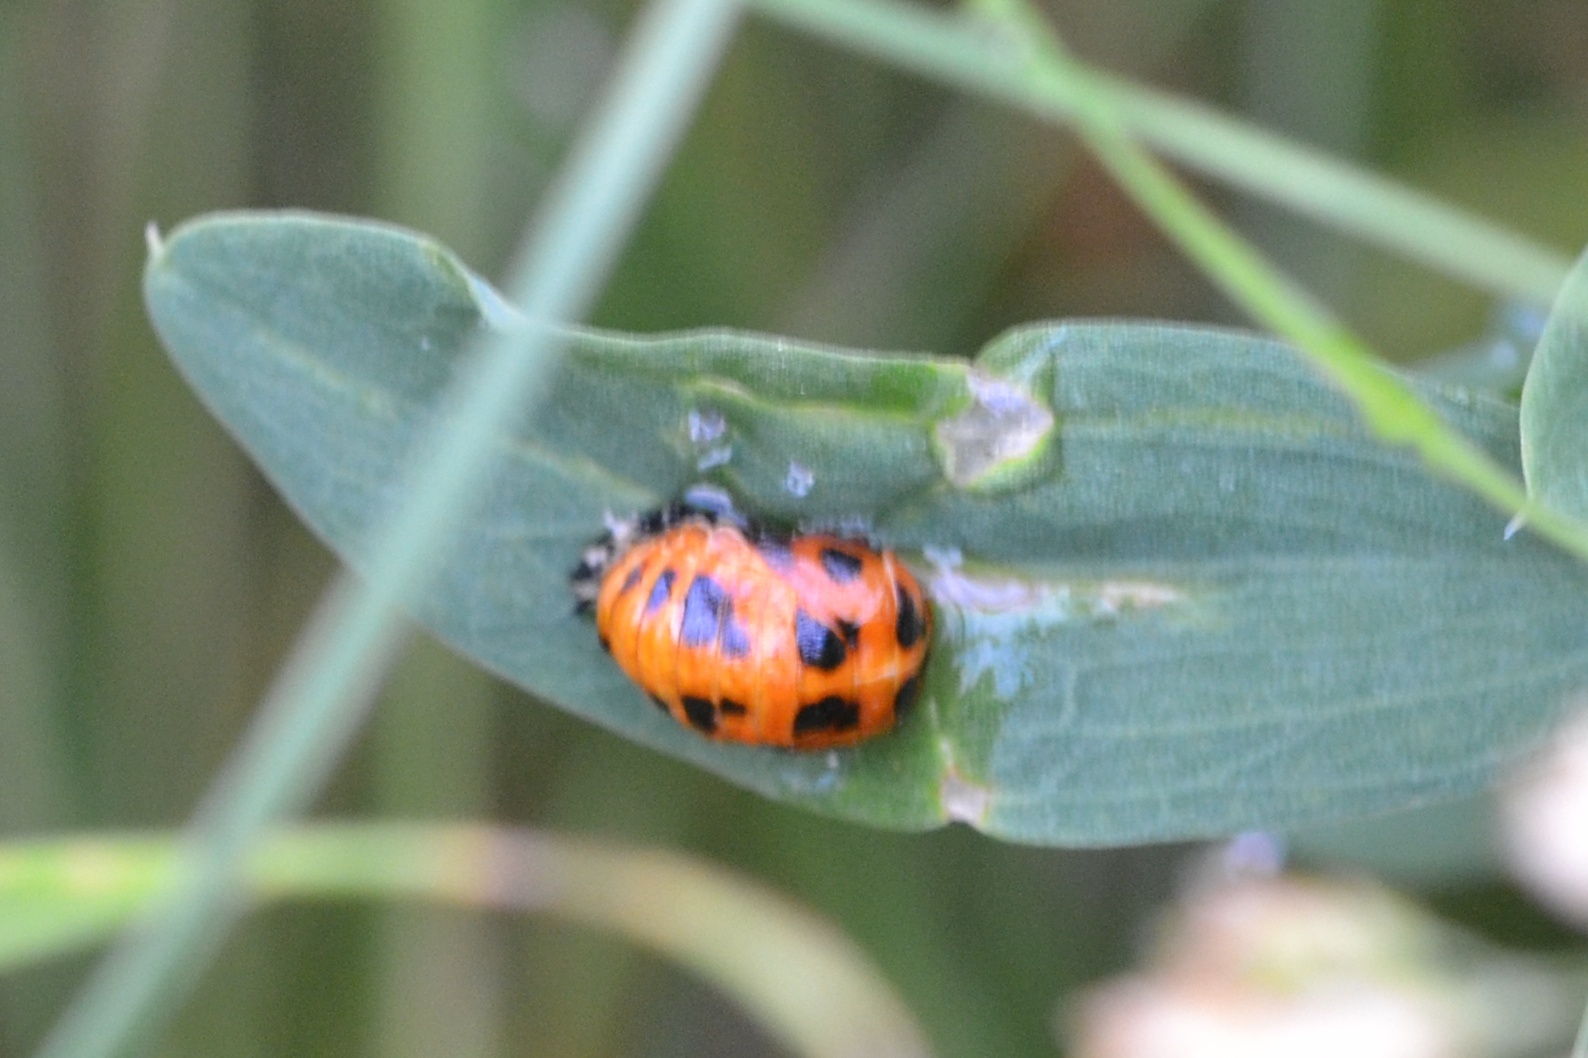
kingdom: Animalia
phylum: Arthropoda
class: Insecta
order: Coleoptera
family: Coccinellidae
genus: Harmonia
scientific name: Harmonia axyridis
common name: Harlequin ladybird
